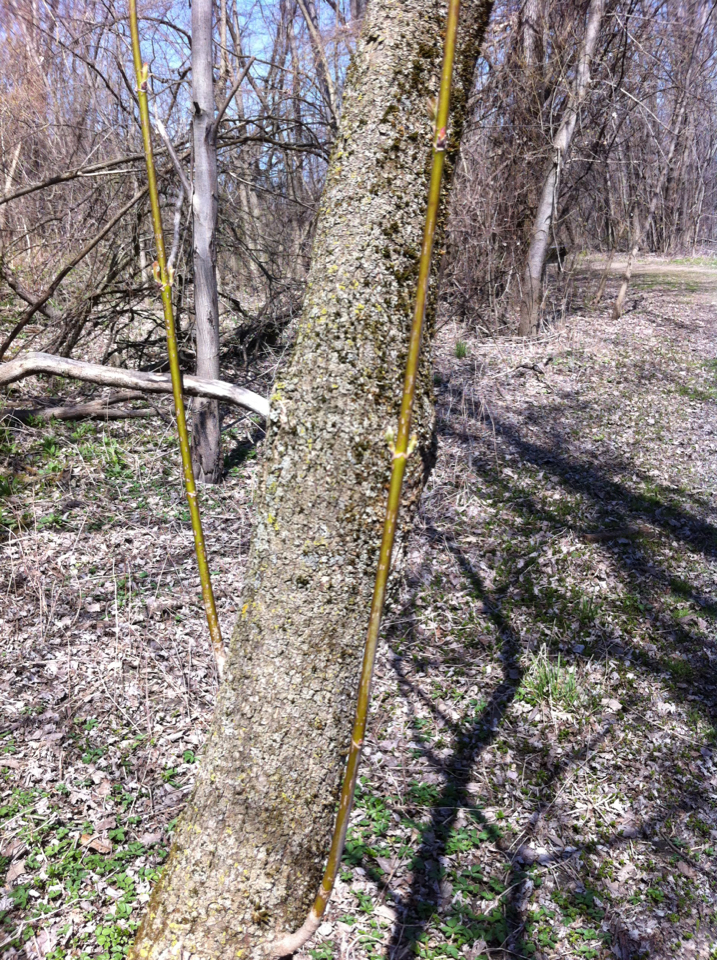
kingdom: Plantae
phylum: Tracheophyta
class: Magnoliopsida
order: Sapindales
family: Sapindaceae
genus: Acer
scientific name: Acer negundo
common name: Ashleaf maple
